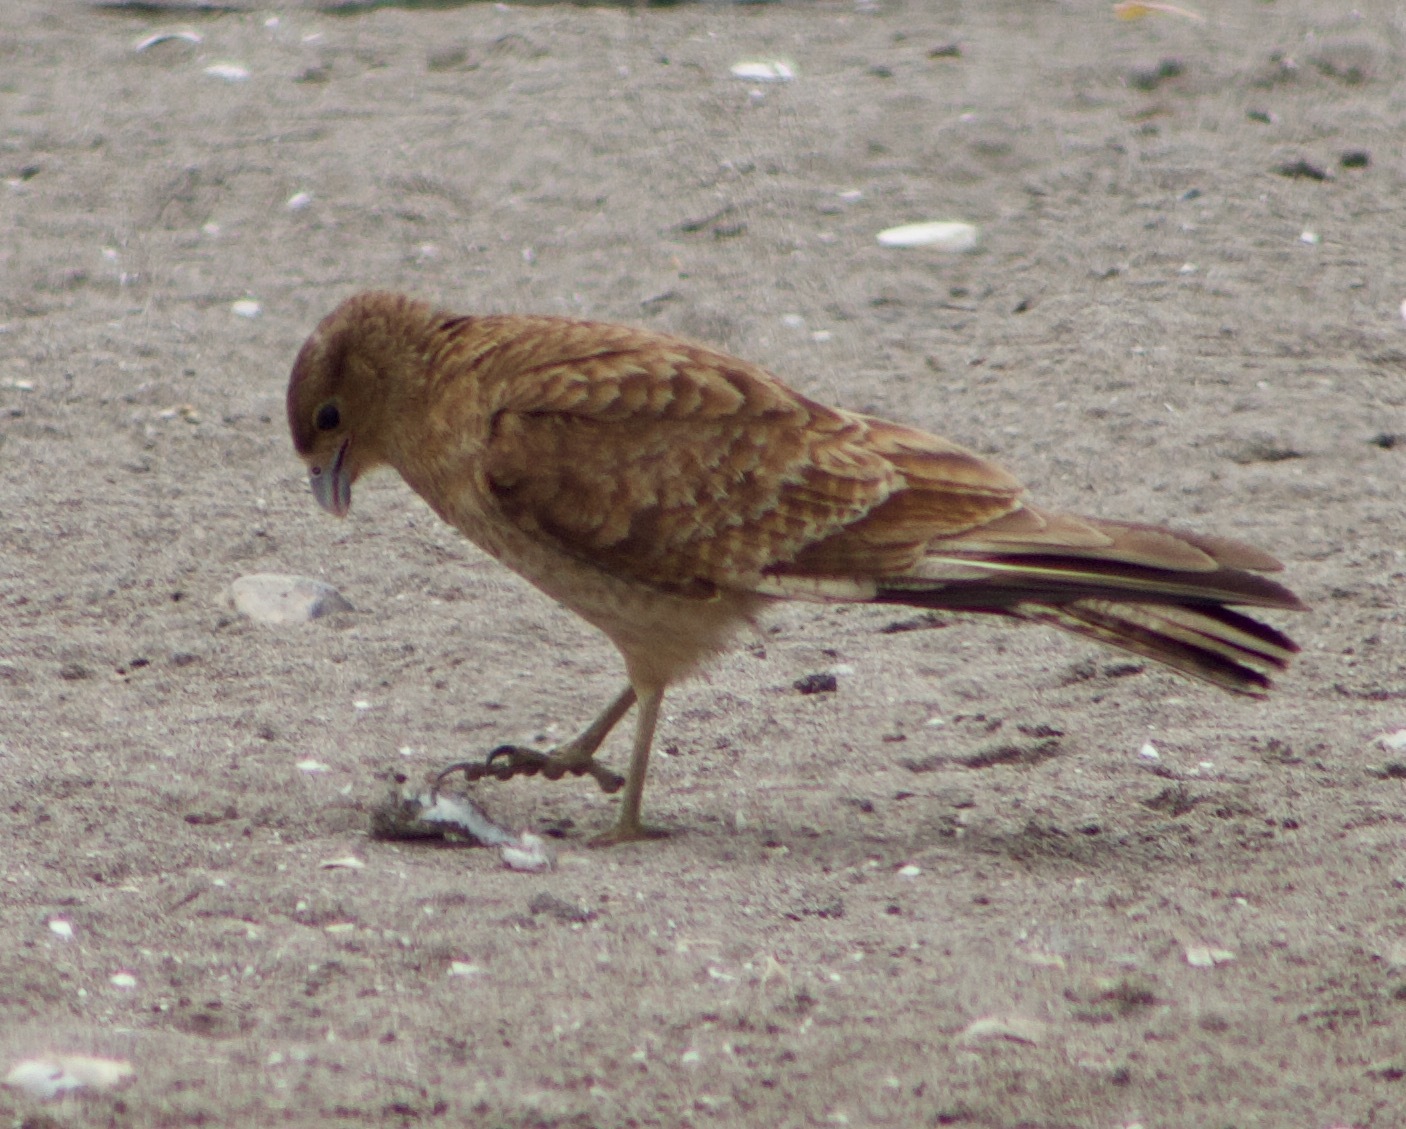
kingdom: Animalia
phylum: Chordata
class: Aves
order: Falconiformes
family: Falconidae
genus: Daptrius
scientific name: Daptrius
